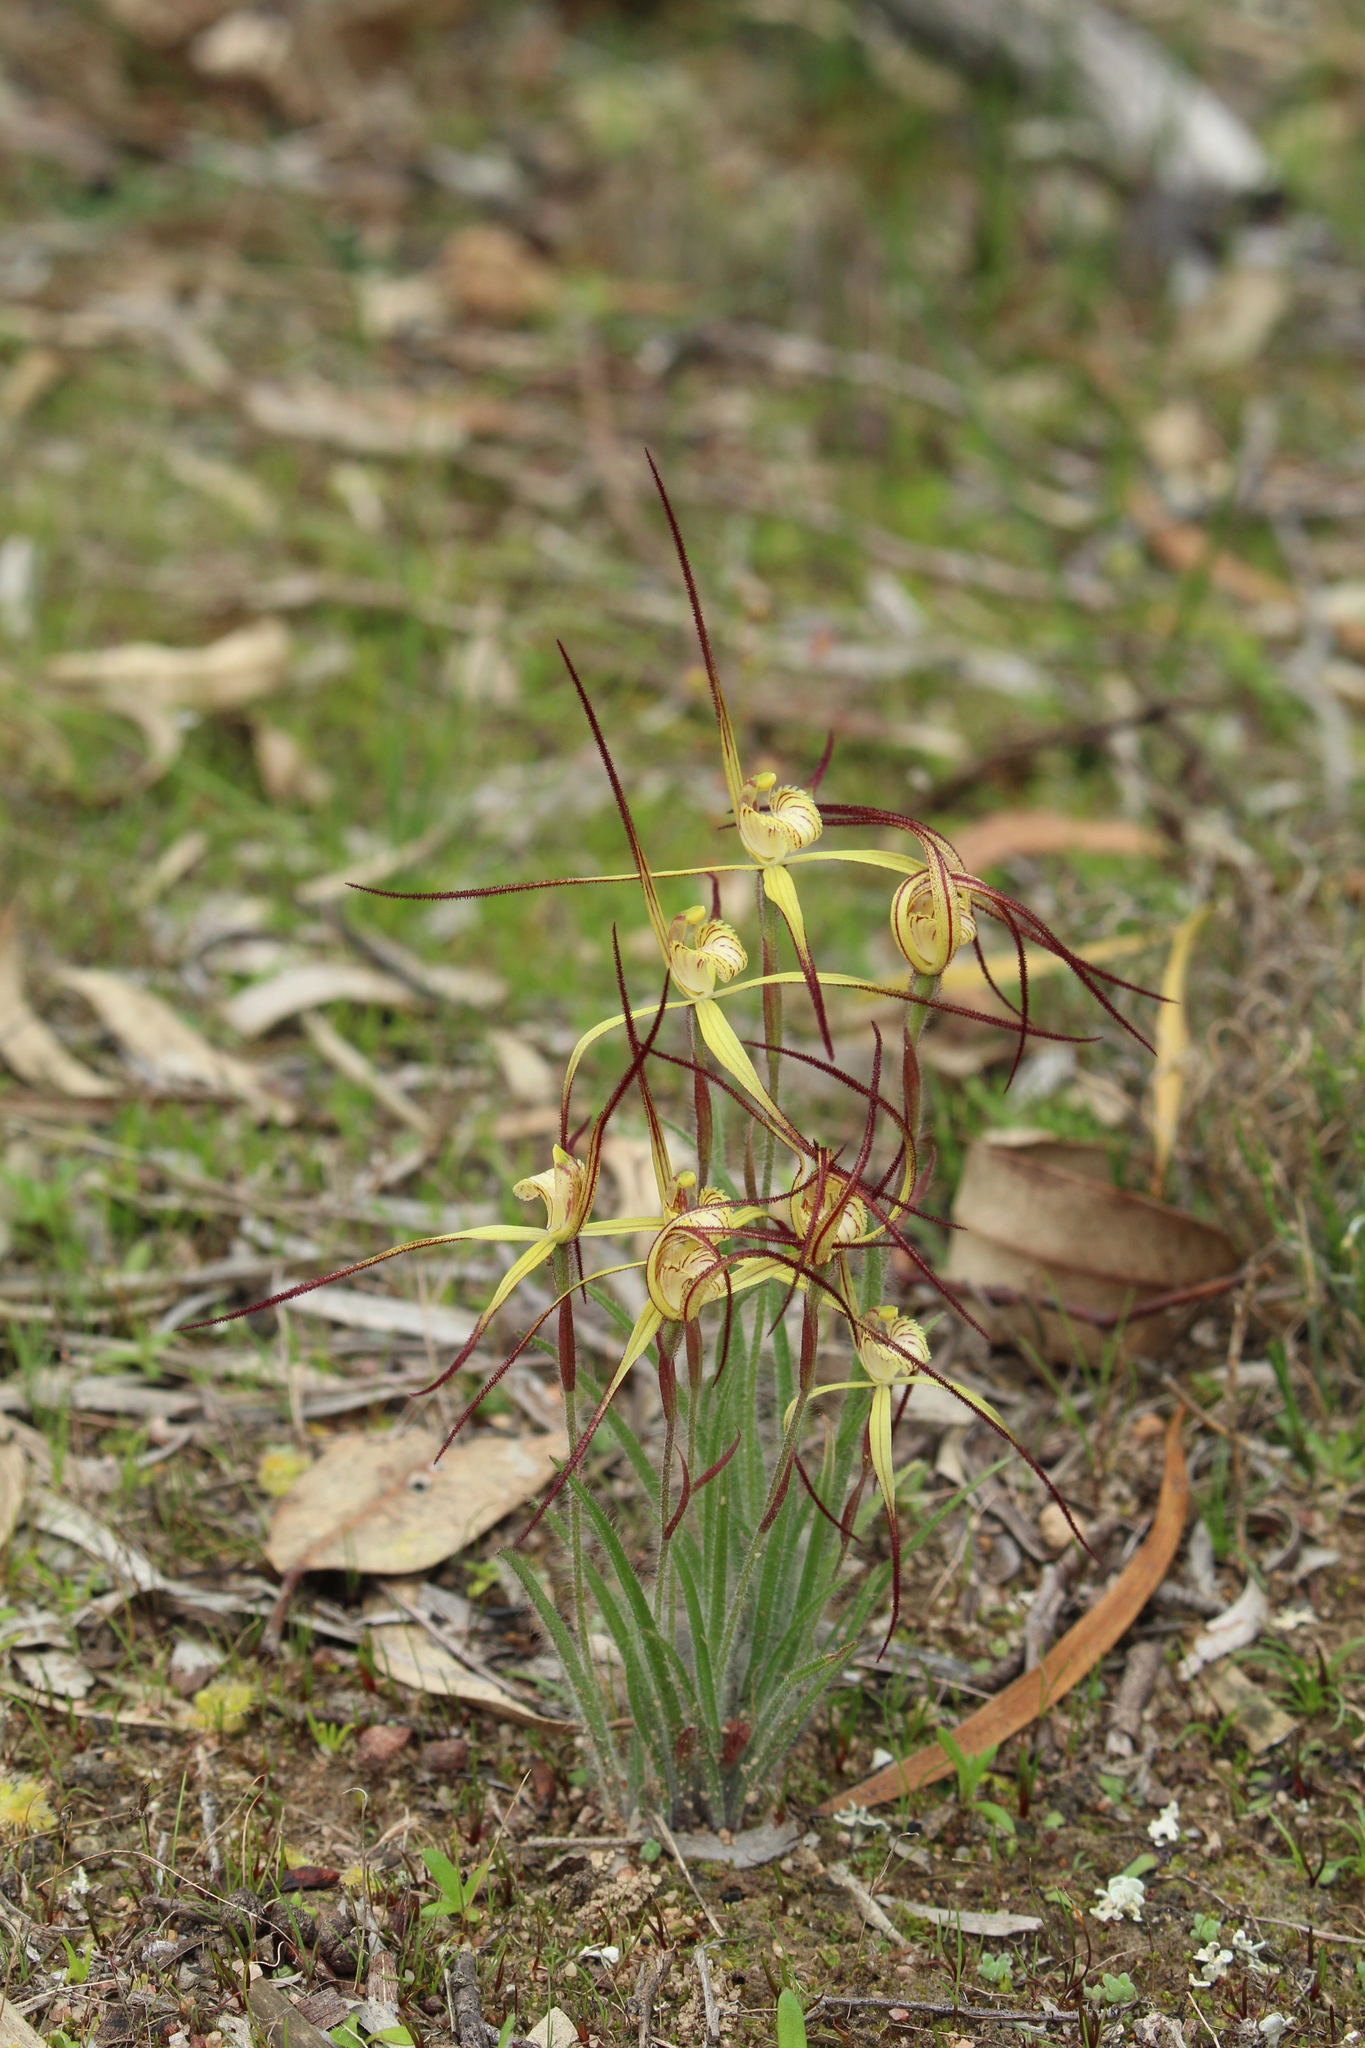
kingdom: Plantae
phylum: Tracheophyta
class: Liliopsida
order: Asparagales
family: Orchidaceae
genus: Caladenia
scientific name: Caladenia xantha
